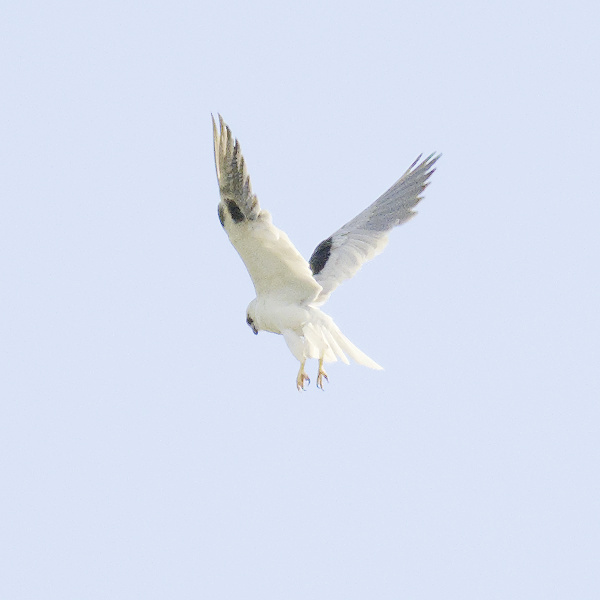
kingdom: Animalia
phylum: Chordata
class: Aves
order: Accipitriformes
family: Accipitridae
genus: Elanus
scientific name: Elanus axillaris
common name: Black-shouldered kite
